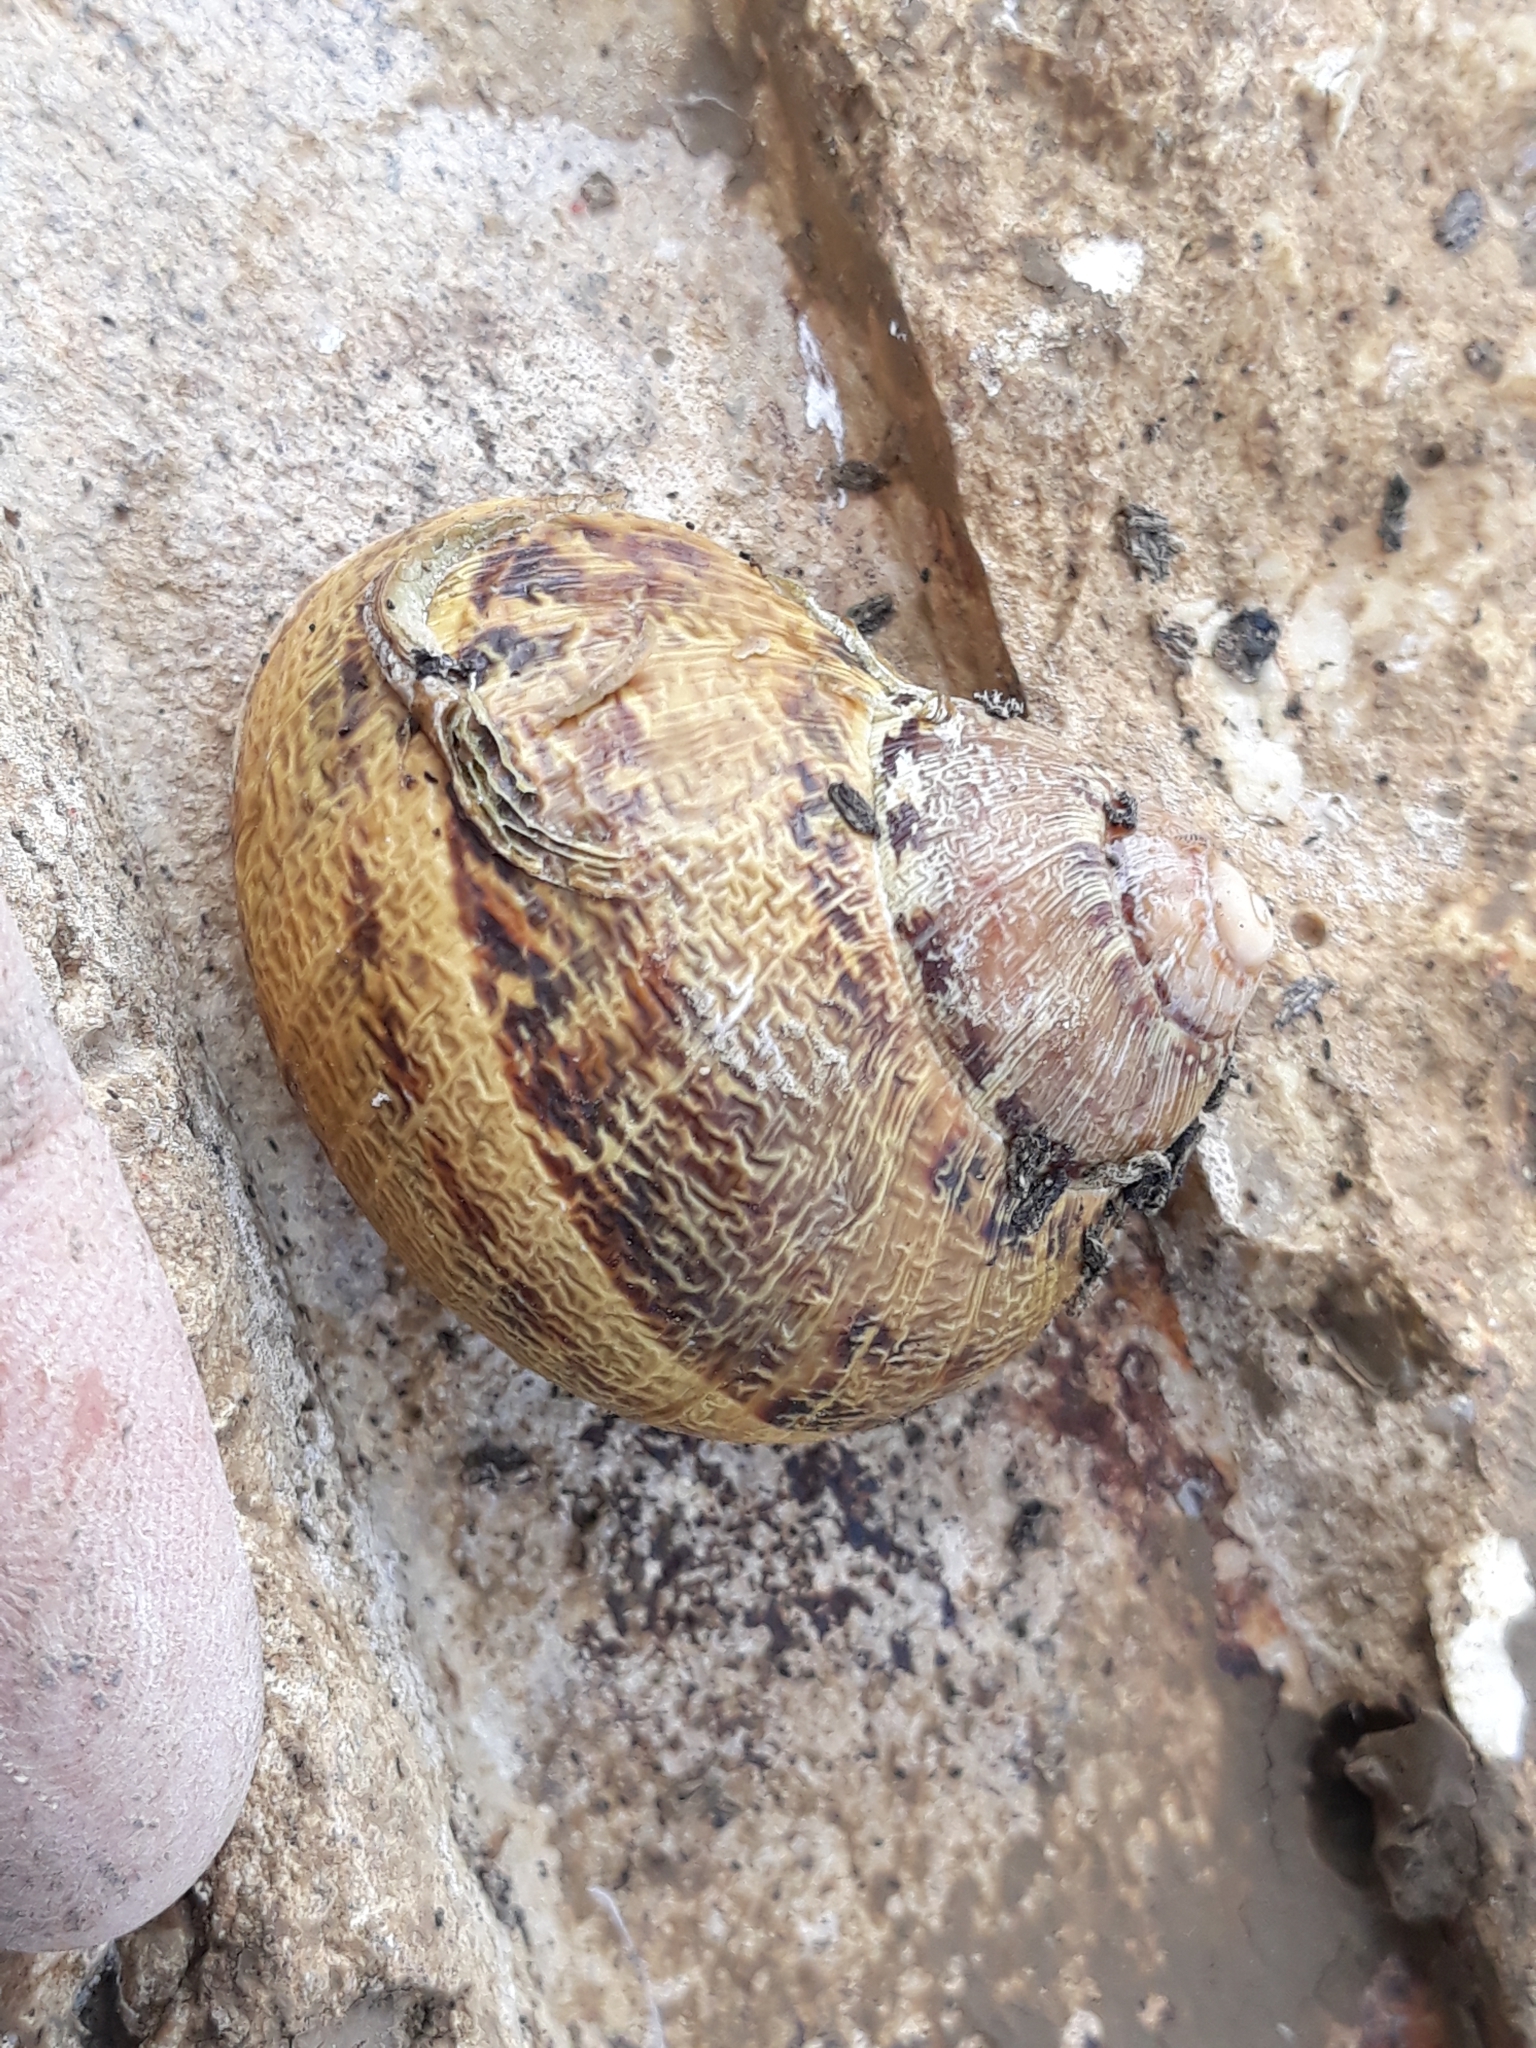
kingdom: Animalia
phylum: Mollusca
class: Gastropoda
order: Stylommatophora
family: Helicidae
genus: Cornu
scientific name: Cornu aspersum
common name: Brown garden snail
